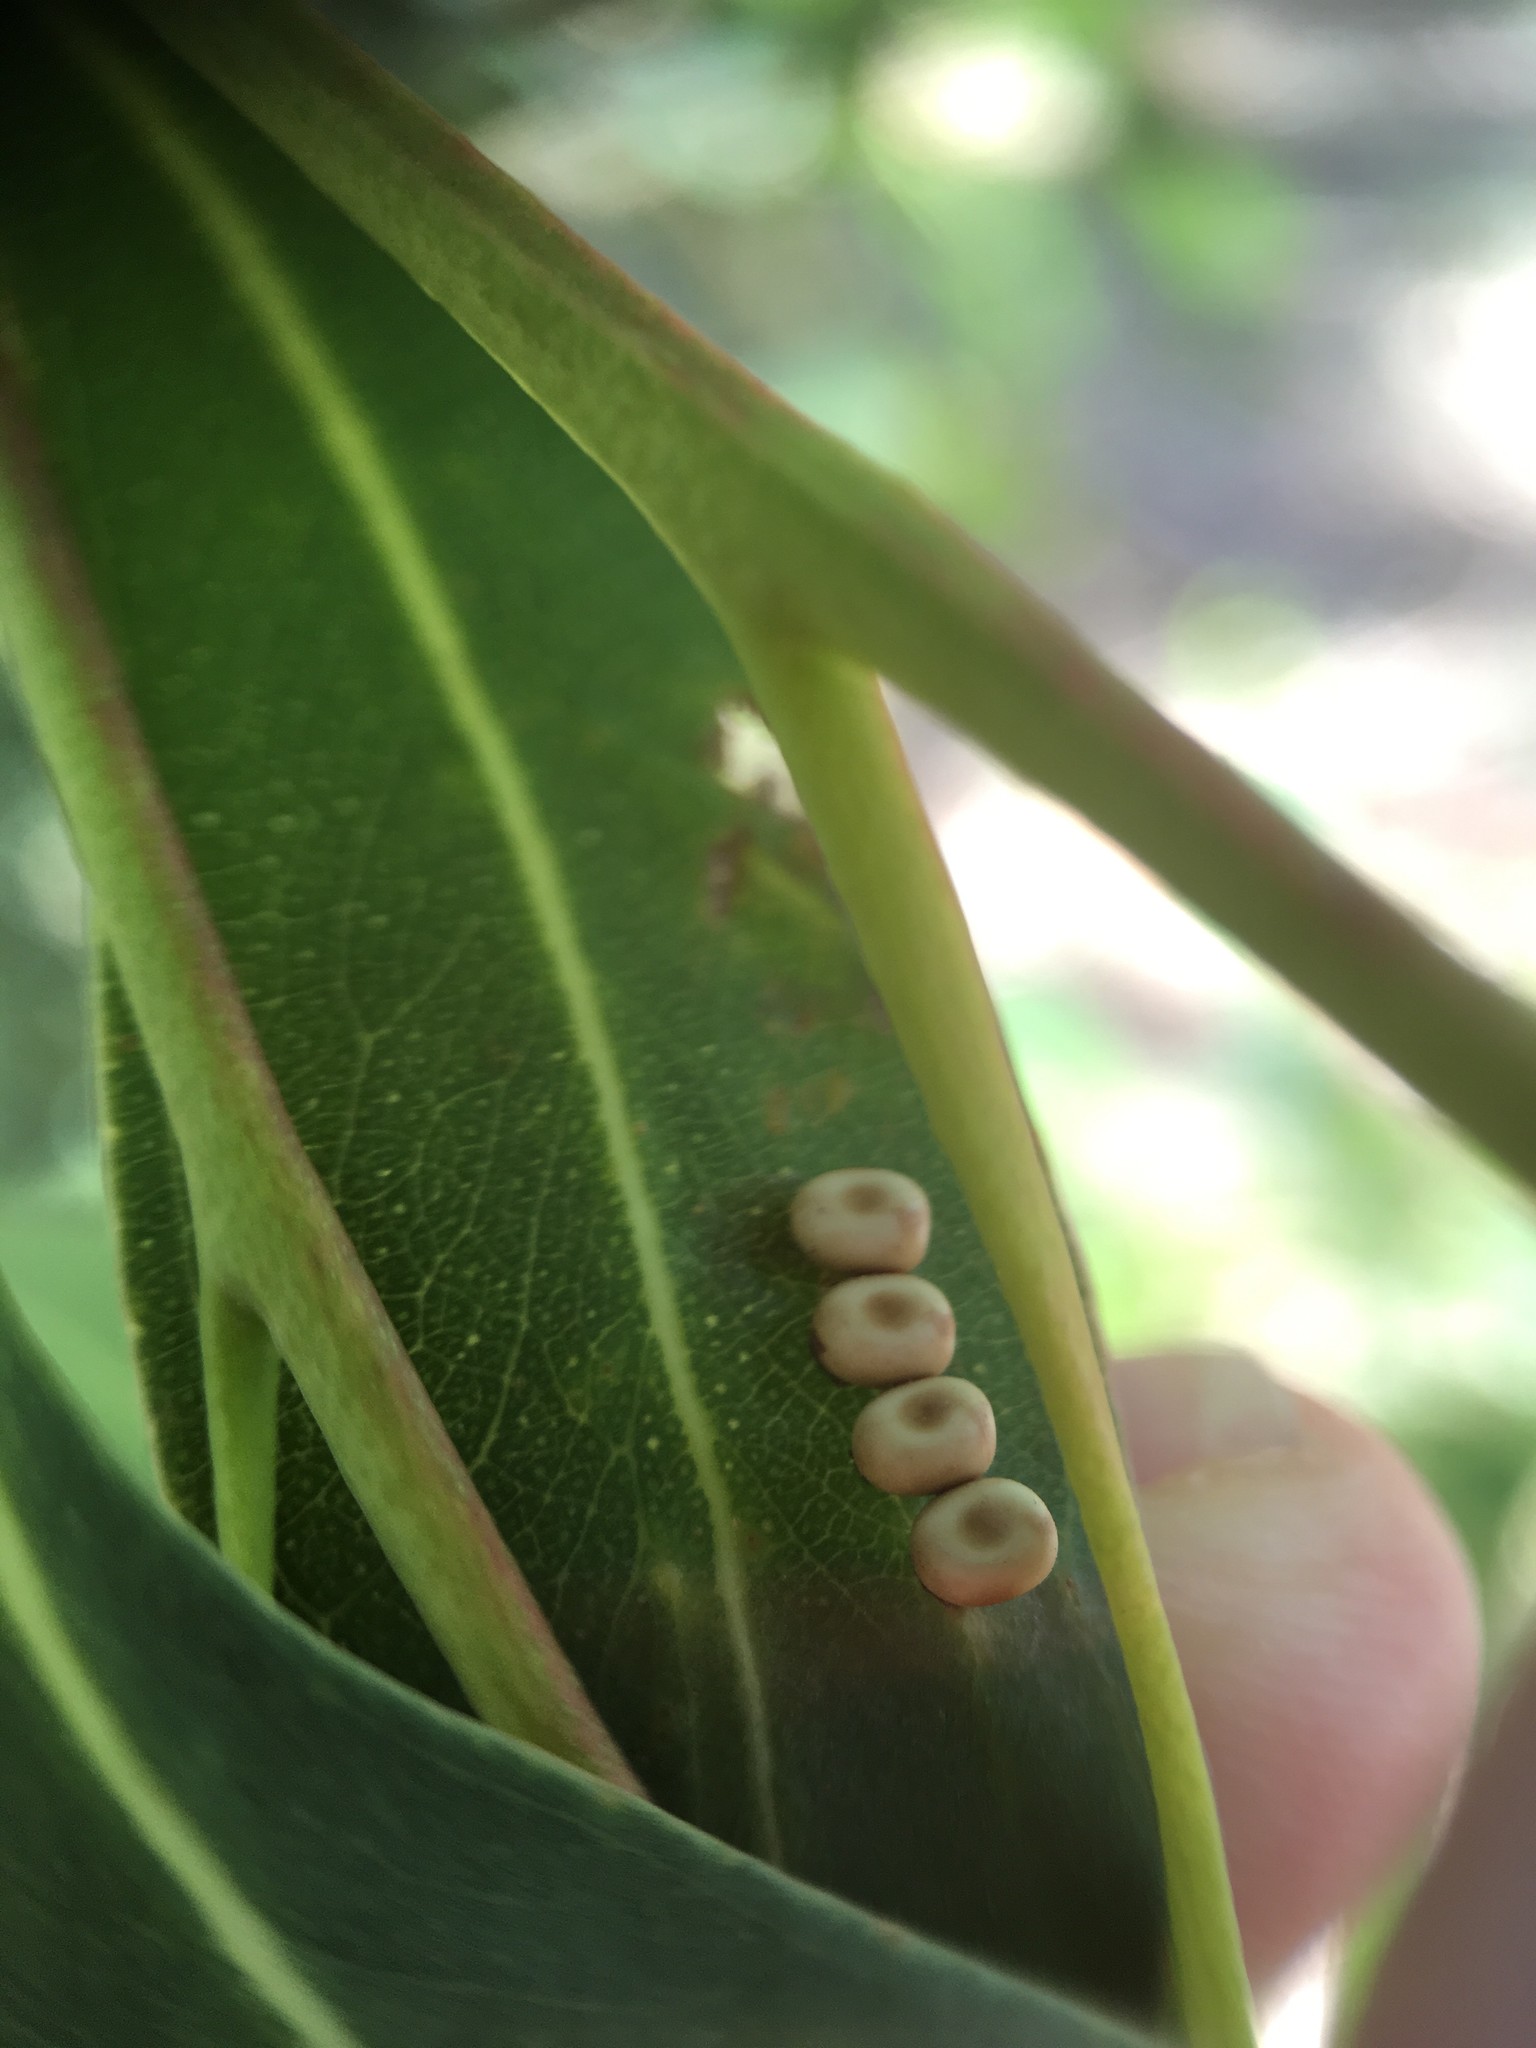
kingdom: Animalia
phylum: Arthropoda
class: Insecta
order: Lepidoptera
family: Saturniidae
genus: Opodiphthera
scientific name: Opodiphthera
